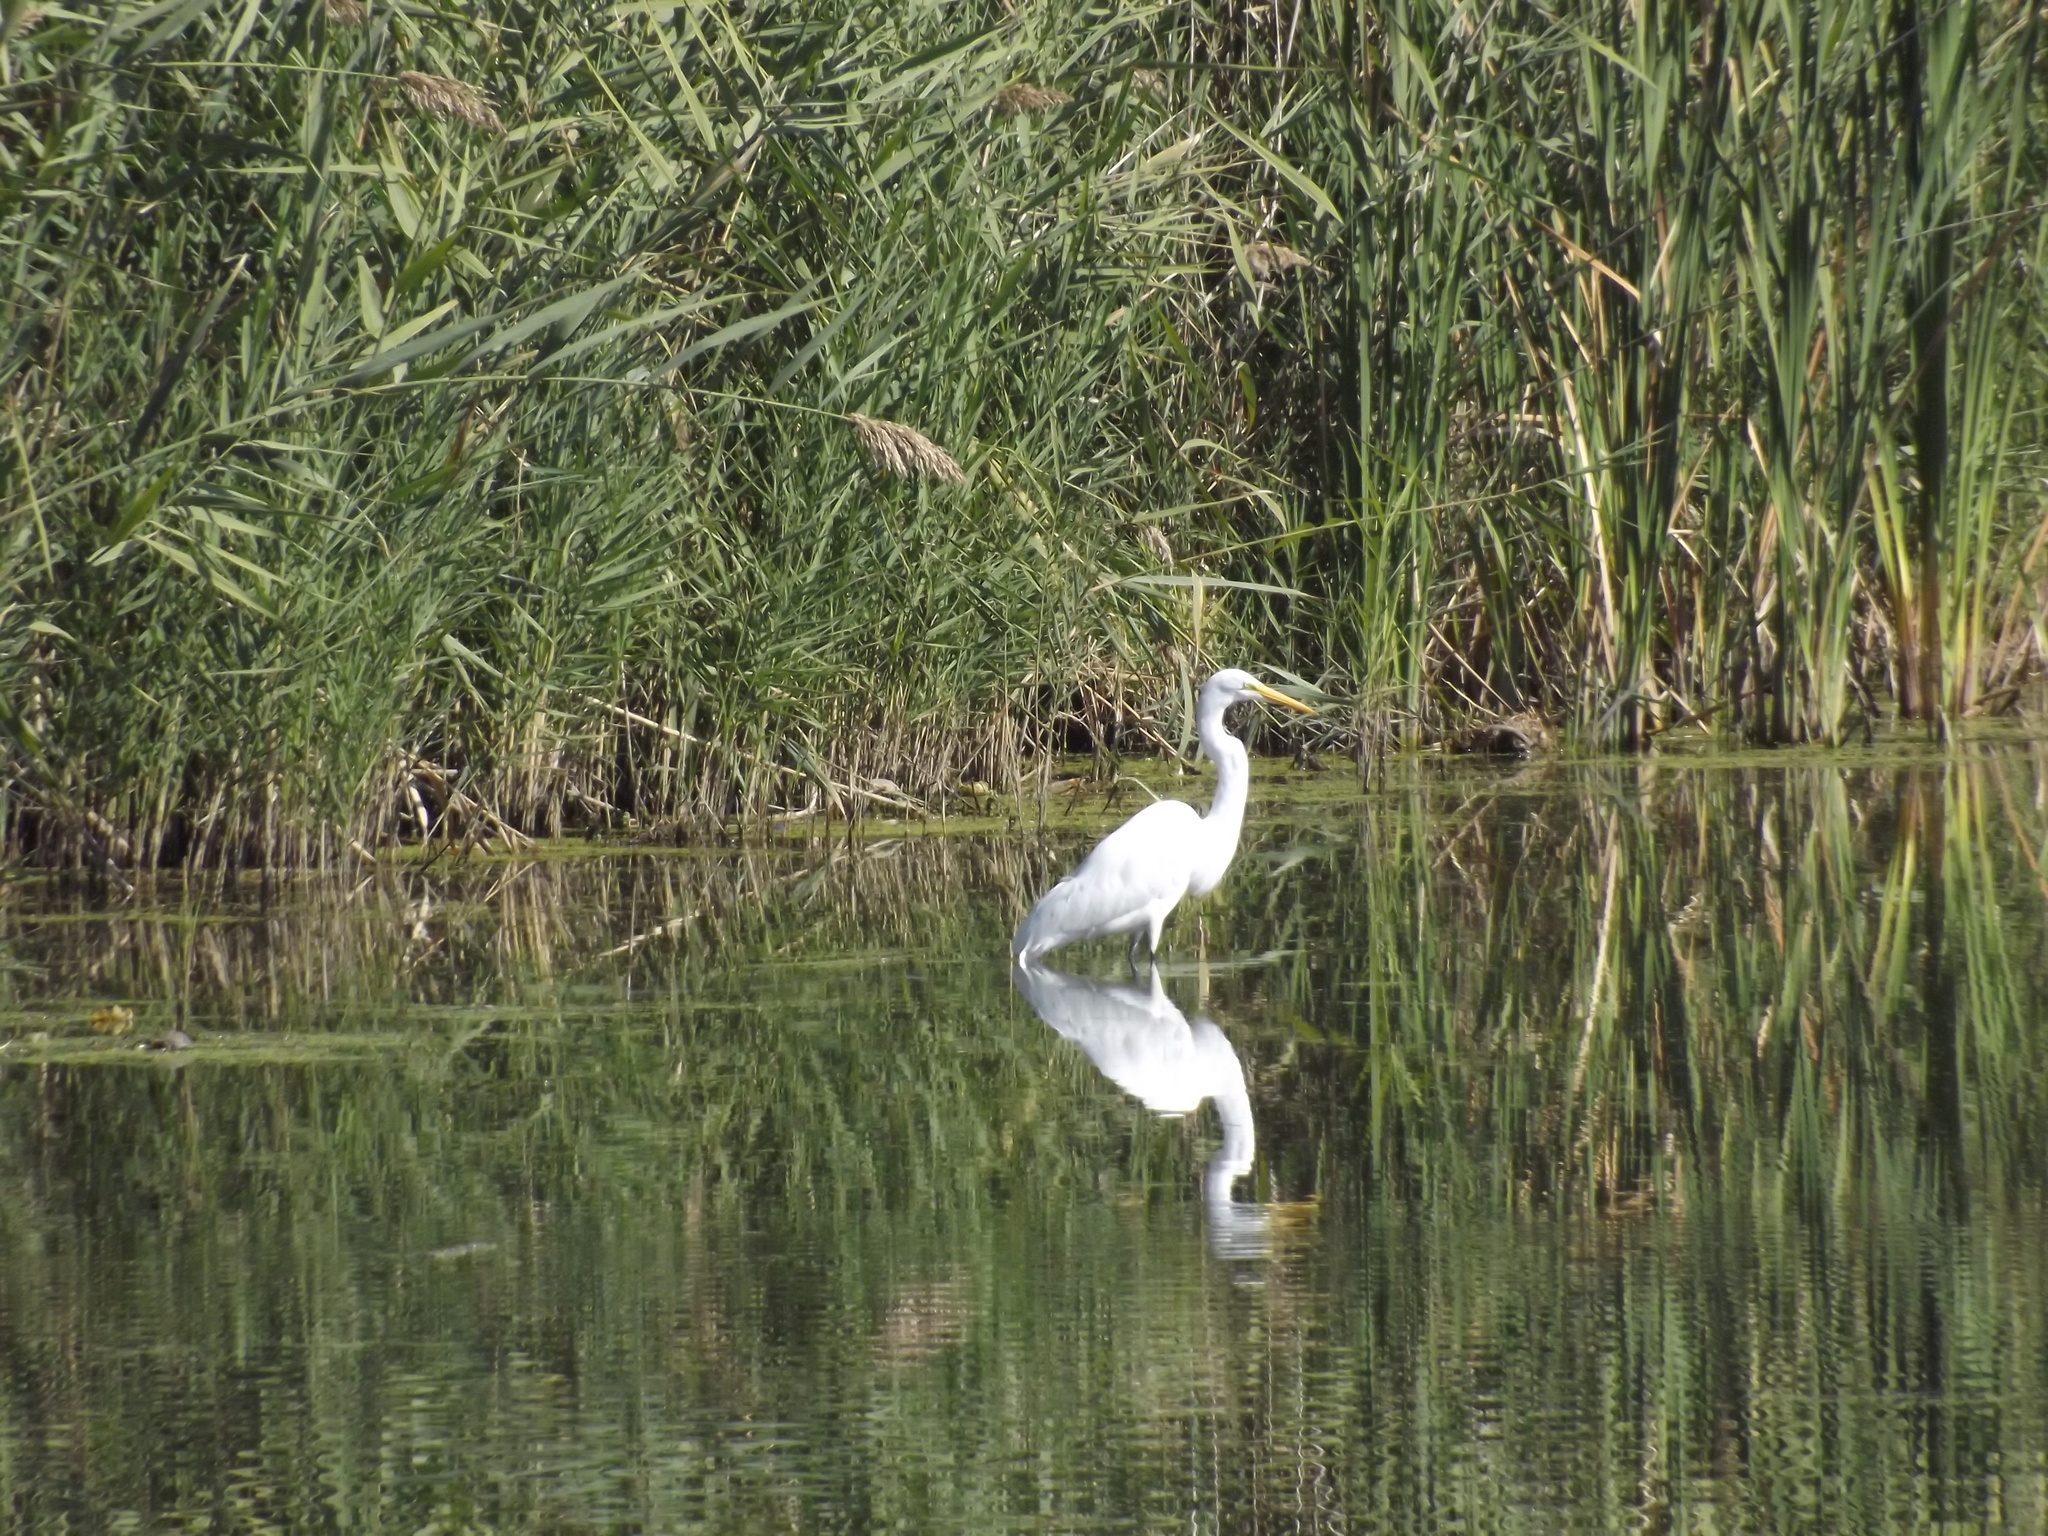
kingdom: Animalia
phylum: Chordata
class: Aves
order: Pelecaniformes
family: Ardeidae
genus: Ardea
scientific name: Ardea alba
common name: Great egret
